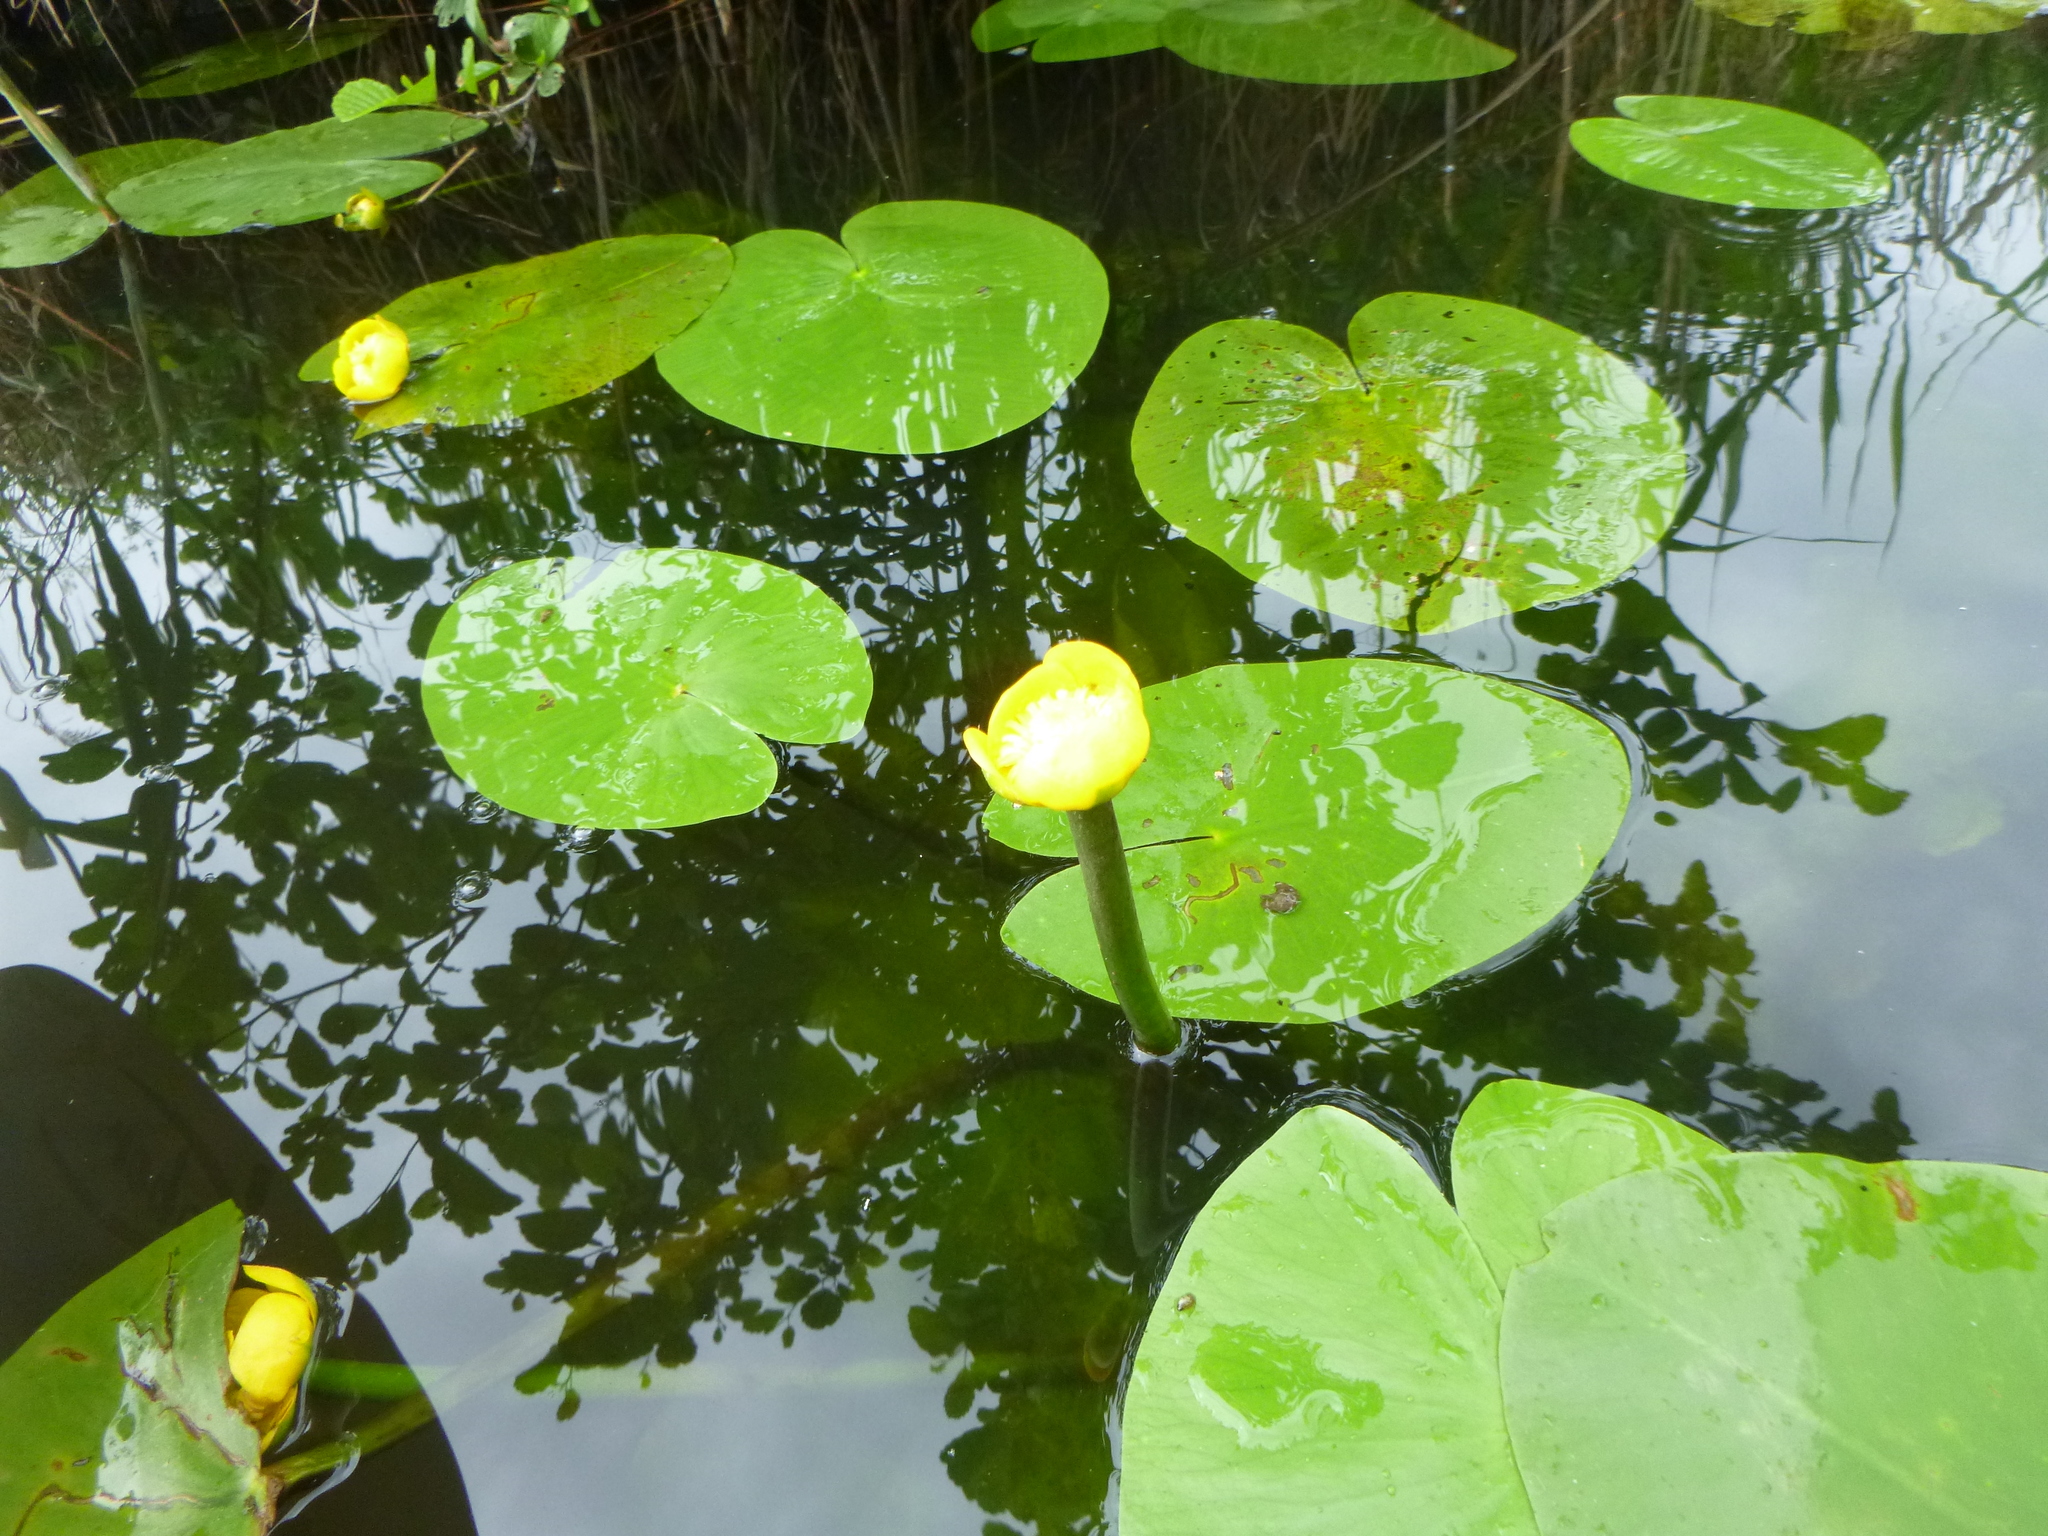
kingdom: Plantae
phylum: Tracheophyta
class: Magnoliopsida
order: Nymphaeales
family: Nymphaeaceae
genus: Nuphar
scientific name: Nuphar lutea
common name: Yellow water-lily
